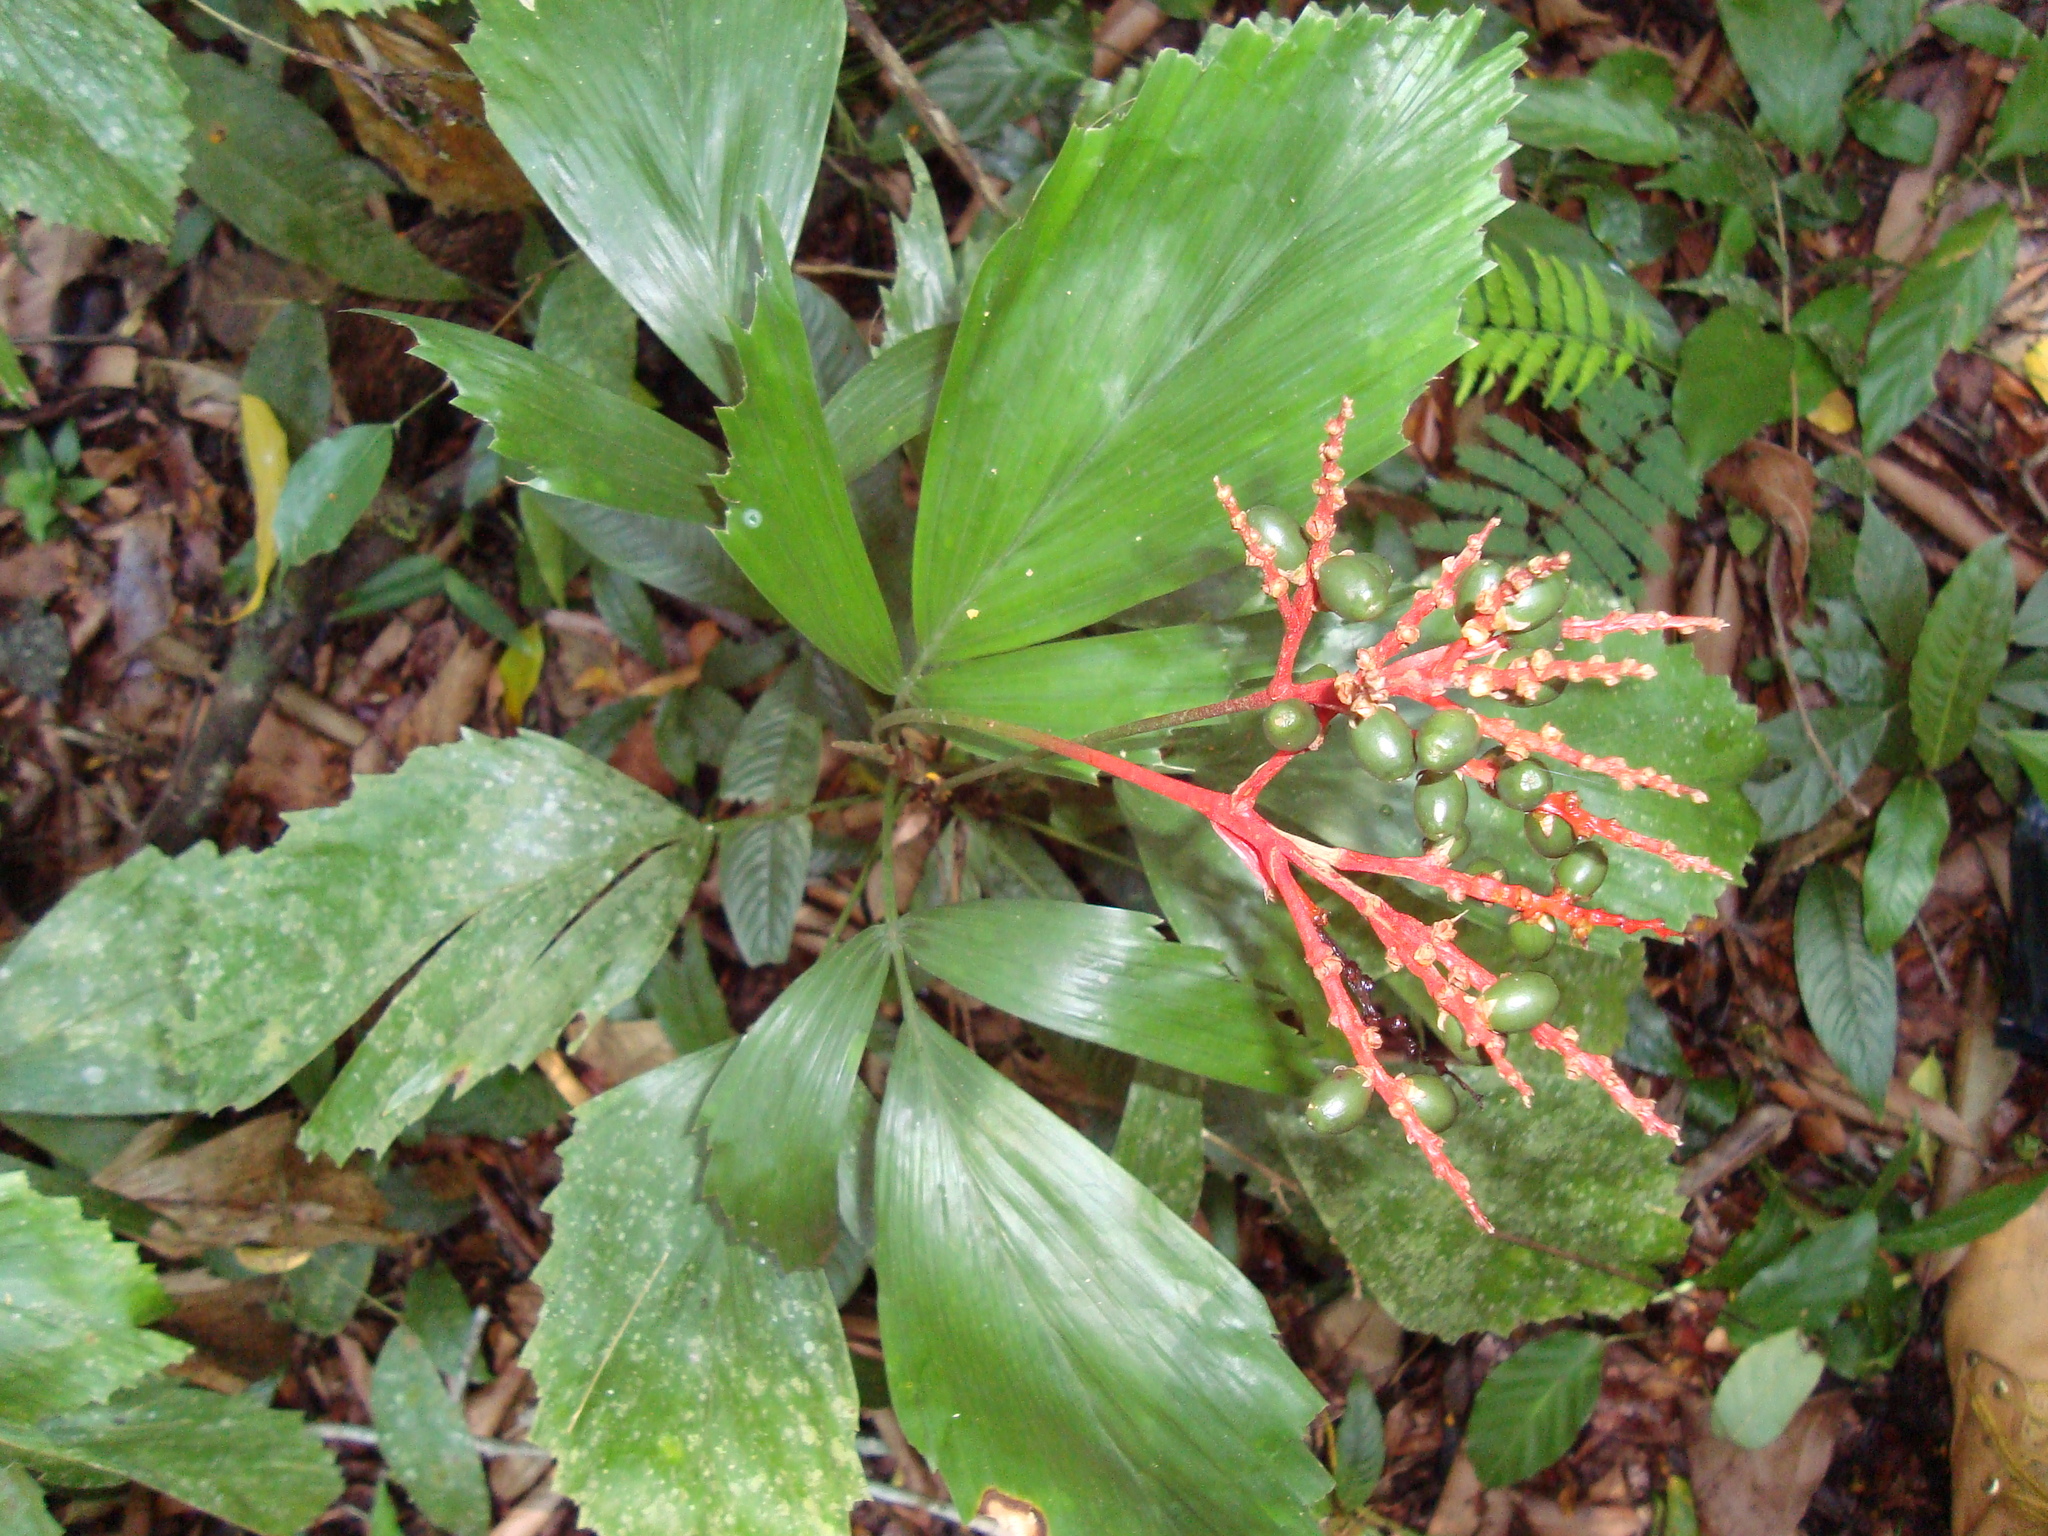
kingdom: Plantae
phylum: Tracheophyta
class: Liliopsida
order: Arecales
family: Arecaceae
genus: Reinhardtia
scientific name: Reinhardtia simplex
